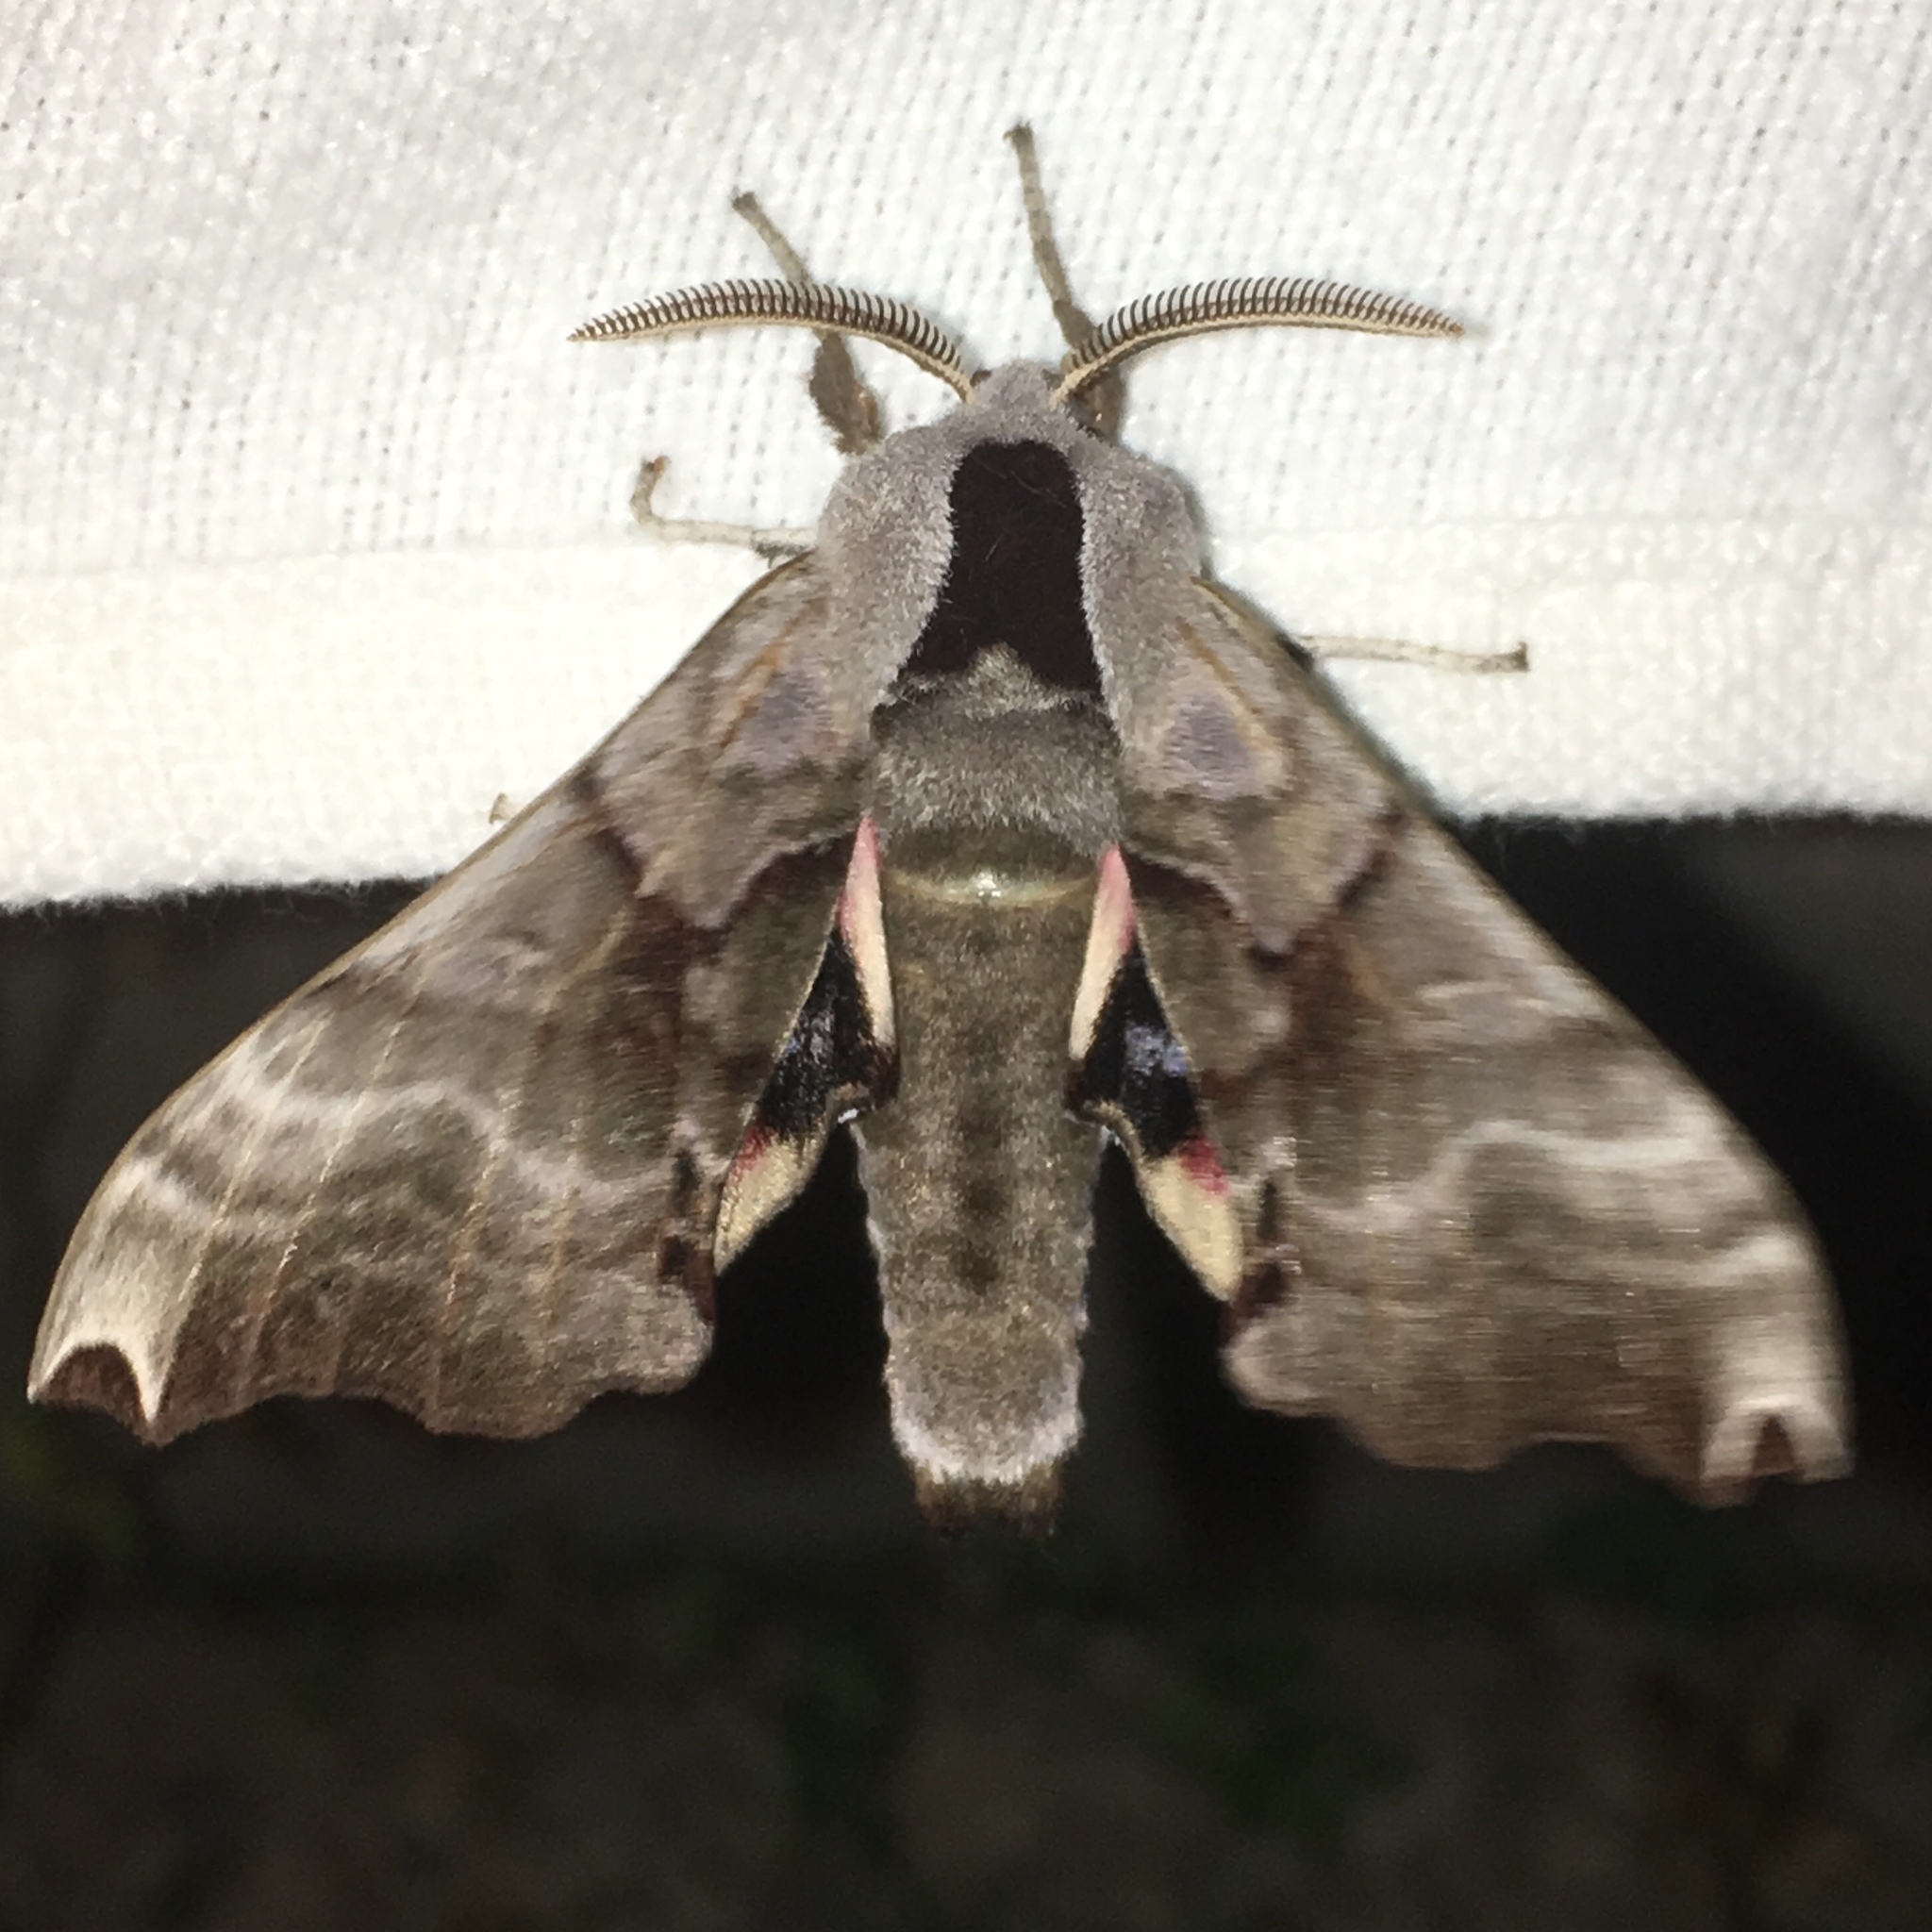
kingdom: Animalia
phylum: Arthropoda
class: Insecta
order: Lepidoptera
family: Sphingidae
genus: Smerinthus
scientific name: Smerinthus jamaicensis
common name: Twin spotted sphinx
